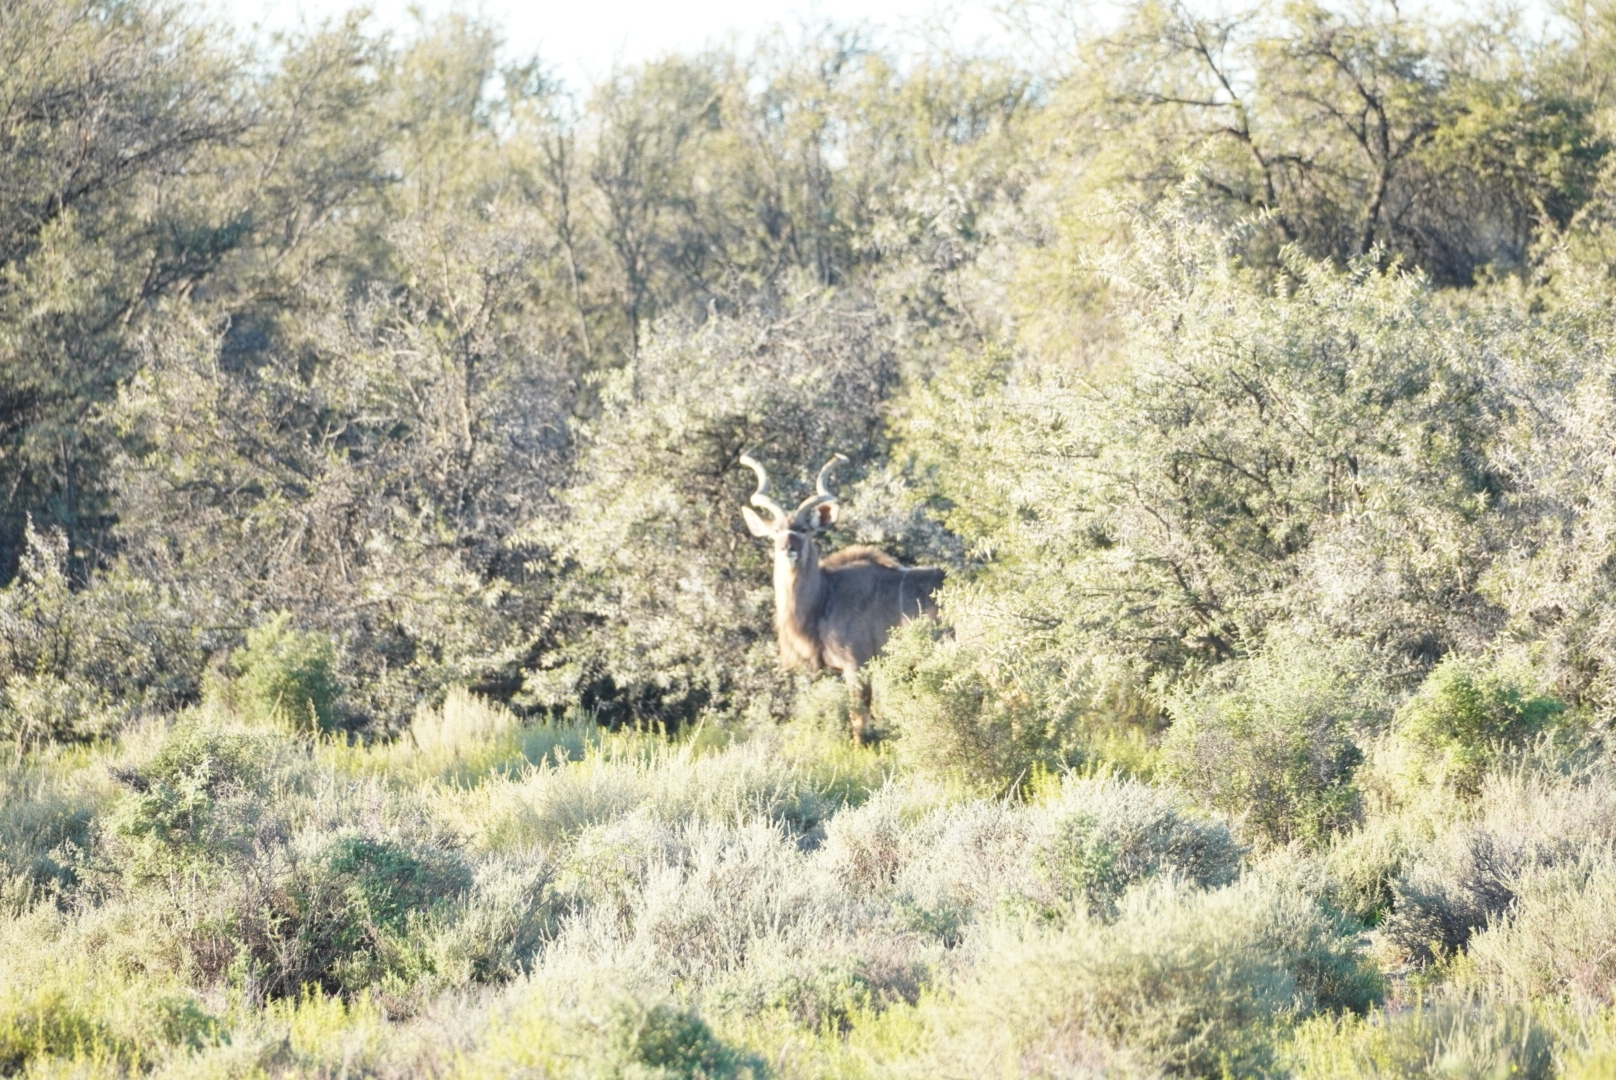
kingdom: Animalia
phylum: Chordata
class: Mammalia
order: Artiodactyla
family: Bovidae
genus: Tragelaphus
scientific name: Tragelaphus strepsiceros
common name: Greater kudu
